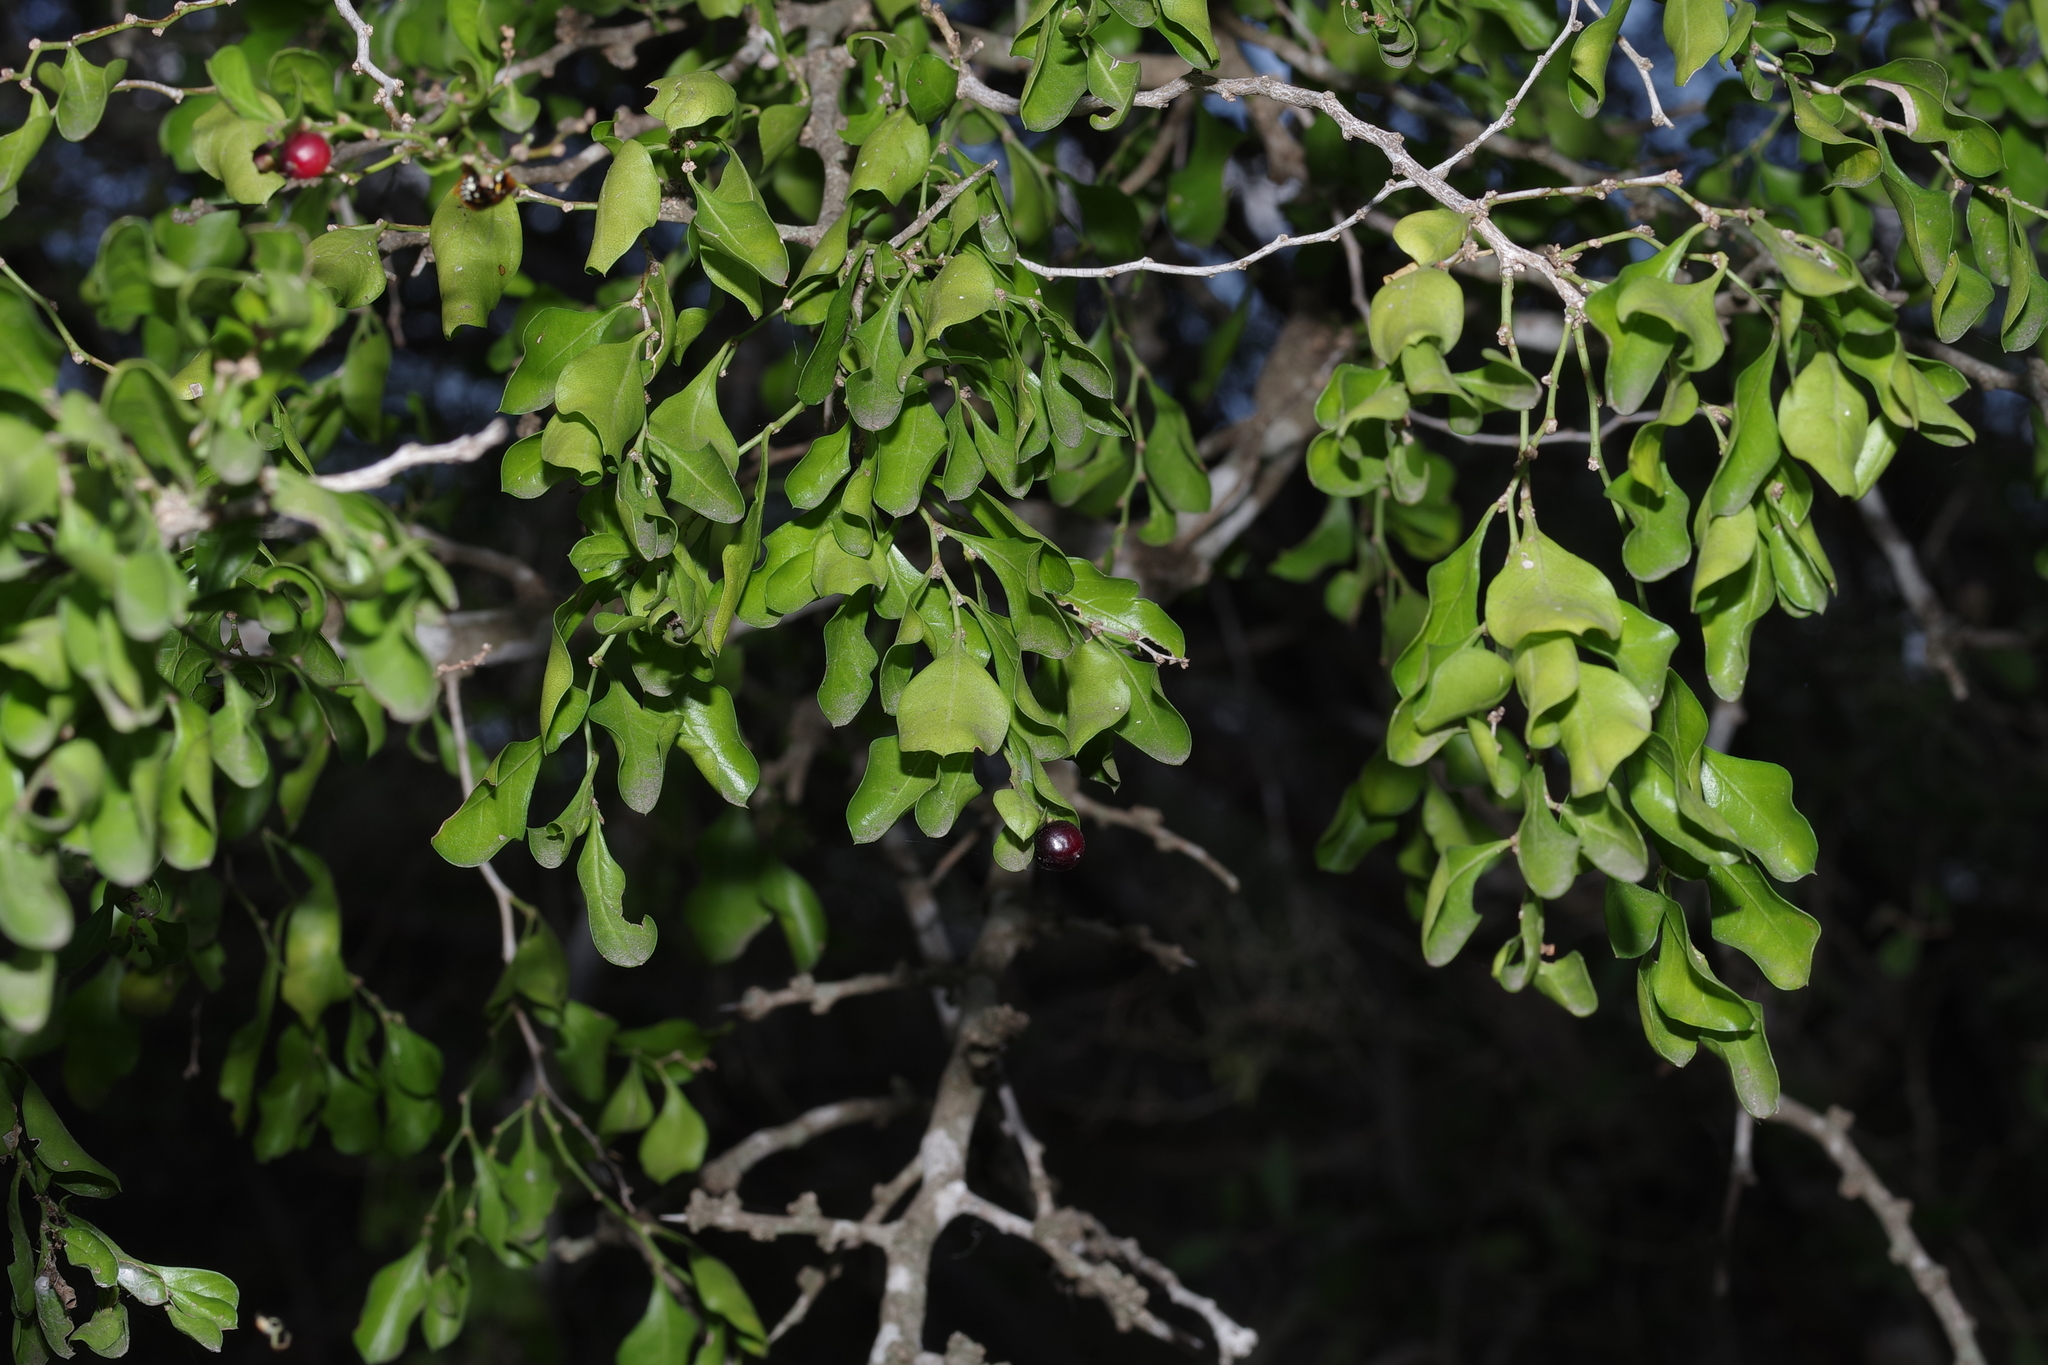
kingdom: Plantae
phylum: Tracheophyta
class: Magnoliopsida
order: Rosales
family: Rhamnaceae
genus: Condalia
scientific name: Condalia hookeri
